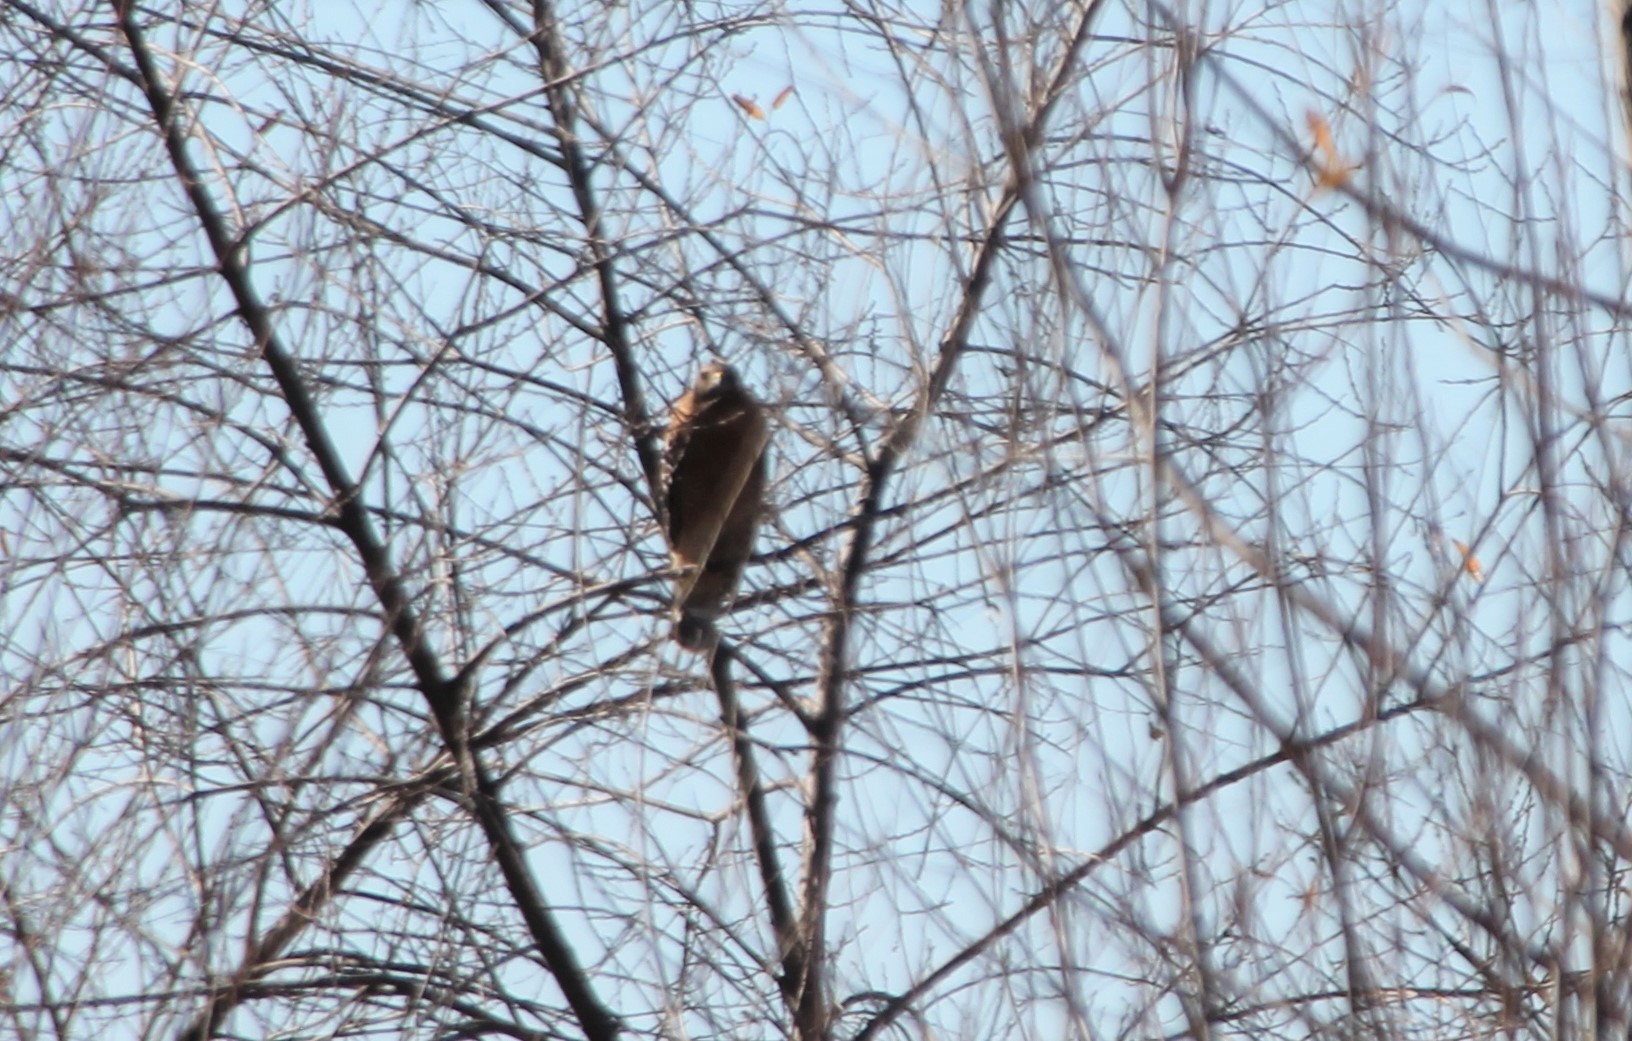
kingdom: Animalia
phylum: Chordata
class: Aves
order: Accipitriformes
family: Accipitridae
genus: Buteo
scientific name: Buteo lineatus
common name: Red-shouldered hawk
